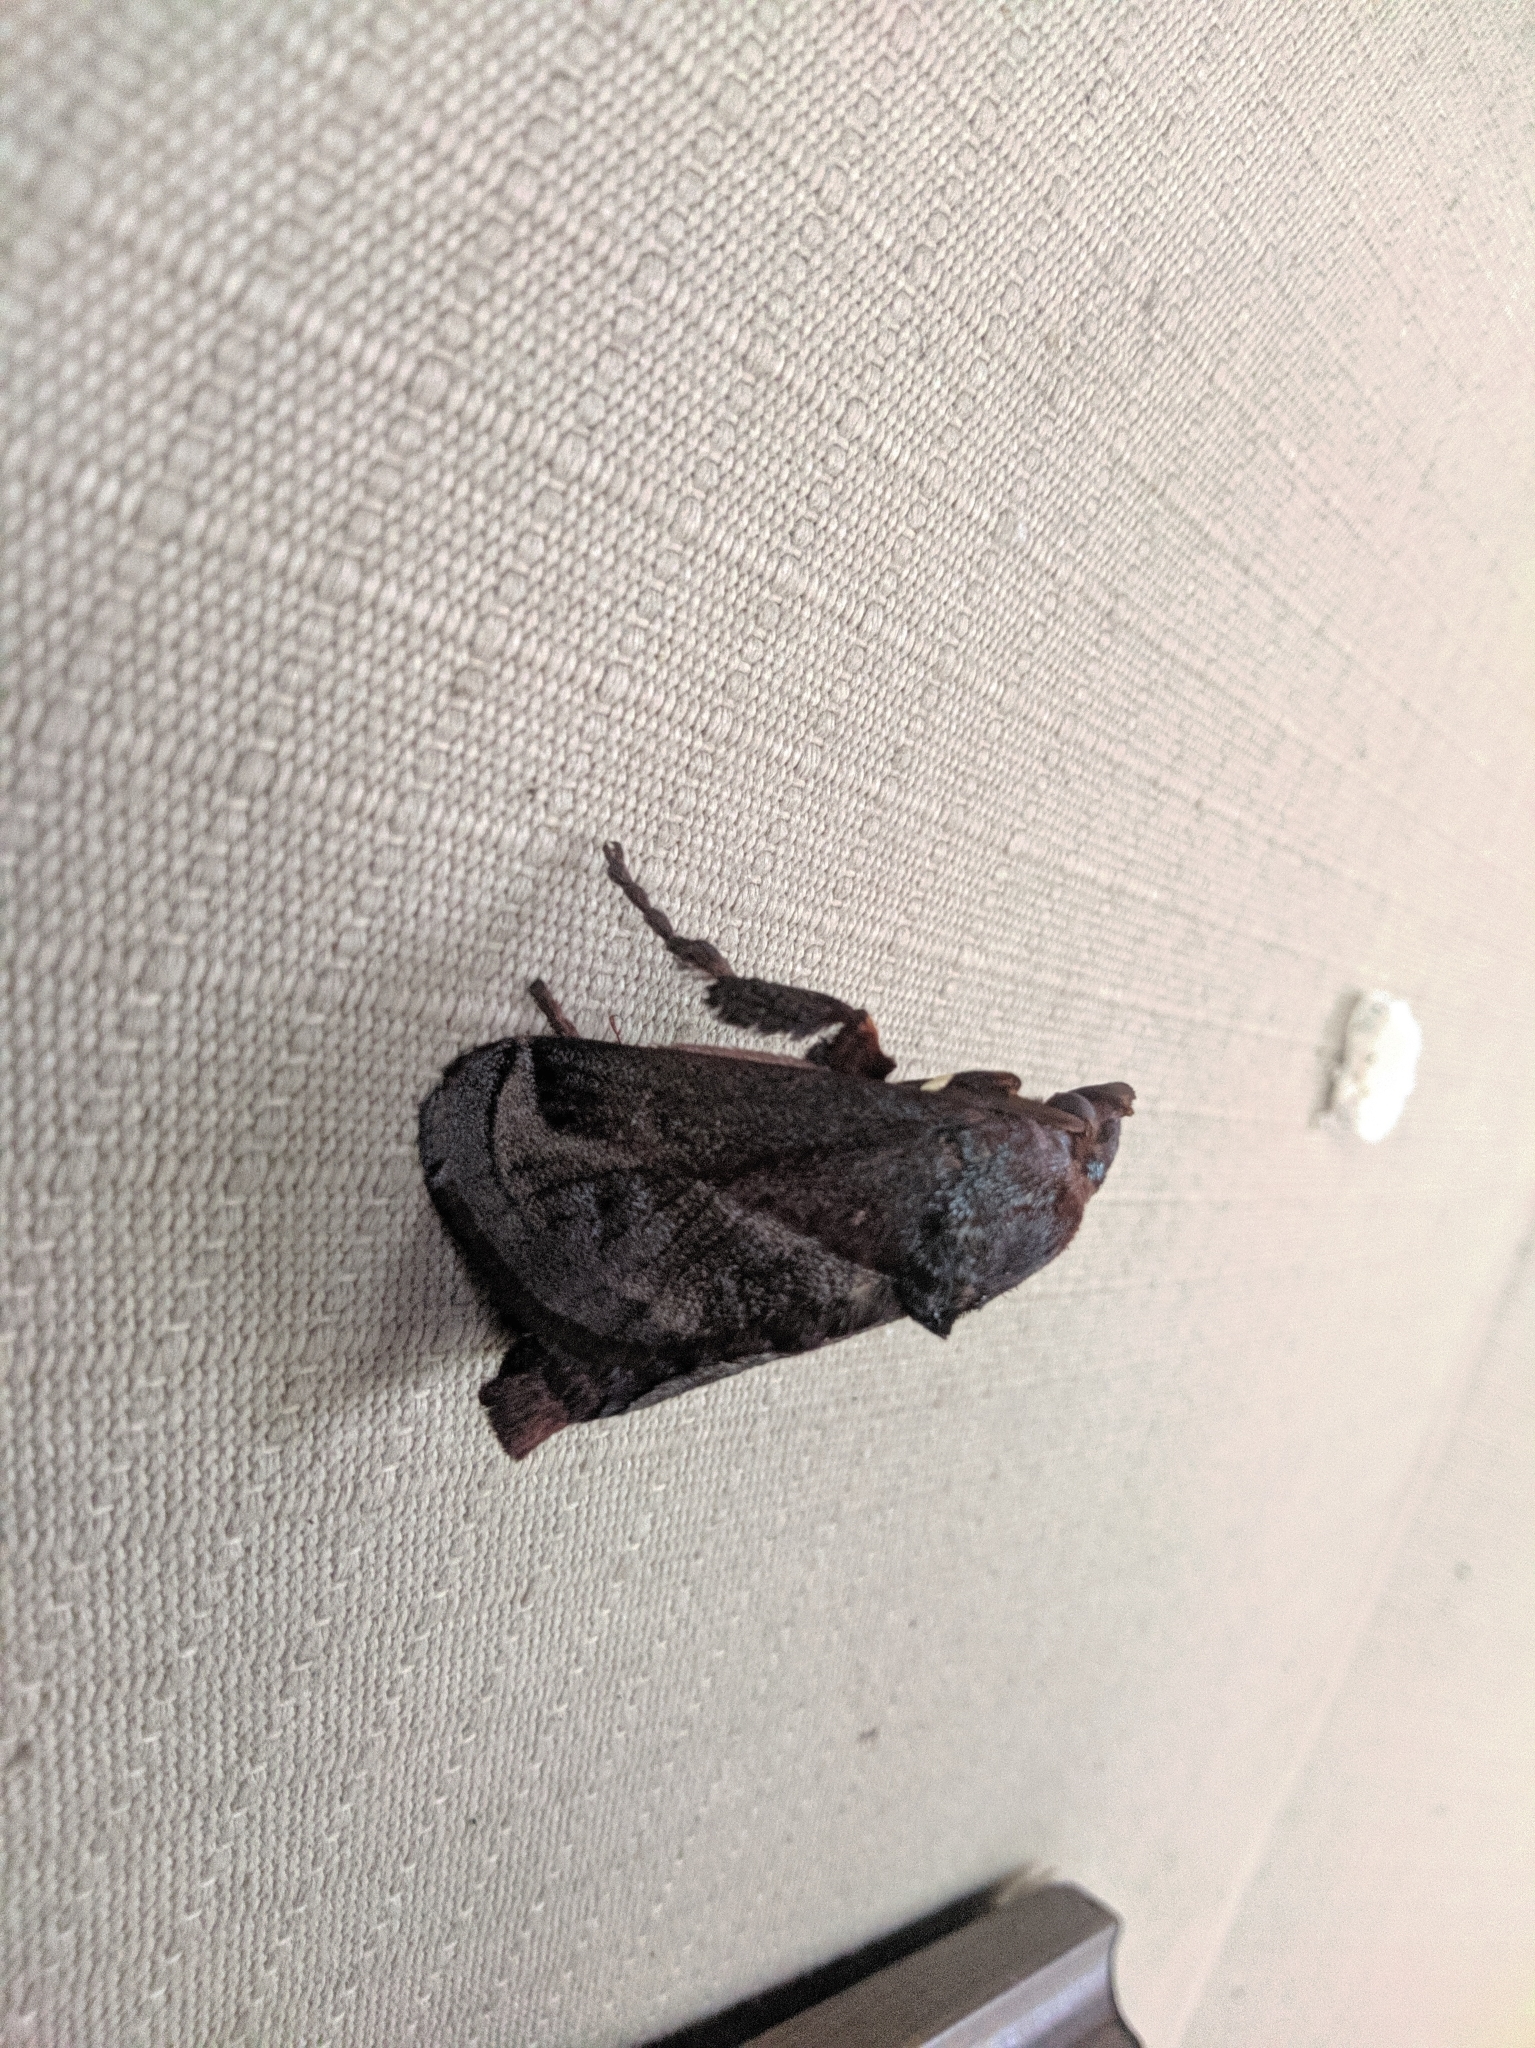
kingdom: Animalia
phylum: Arthropoda
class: Insecta
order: Lepidoptera
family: Limacodidae
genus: Phocoderma
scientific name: Phocoderma velutina
